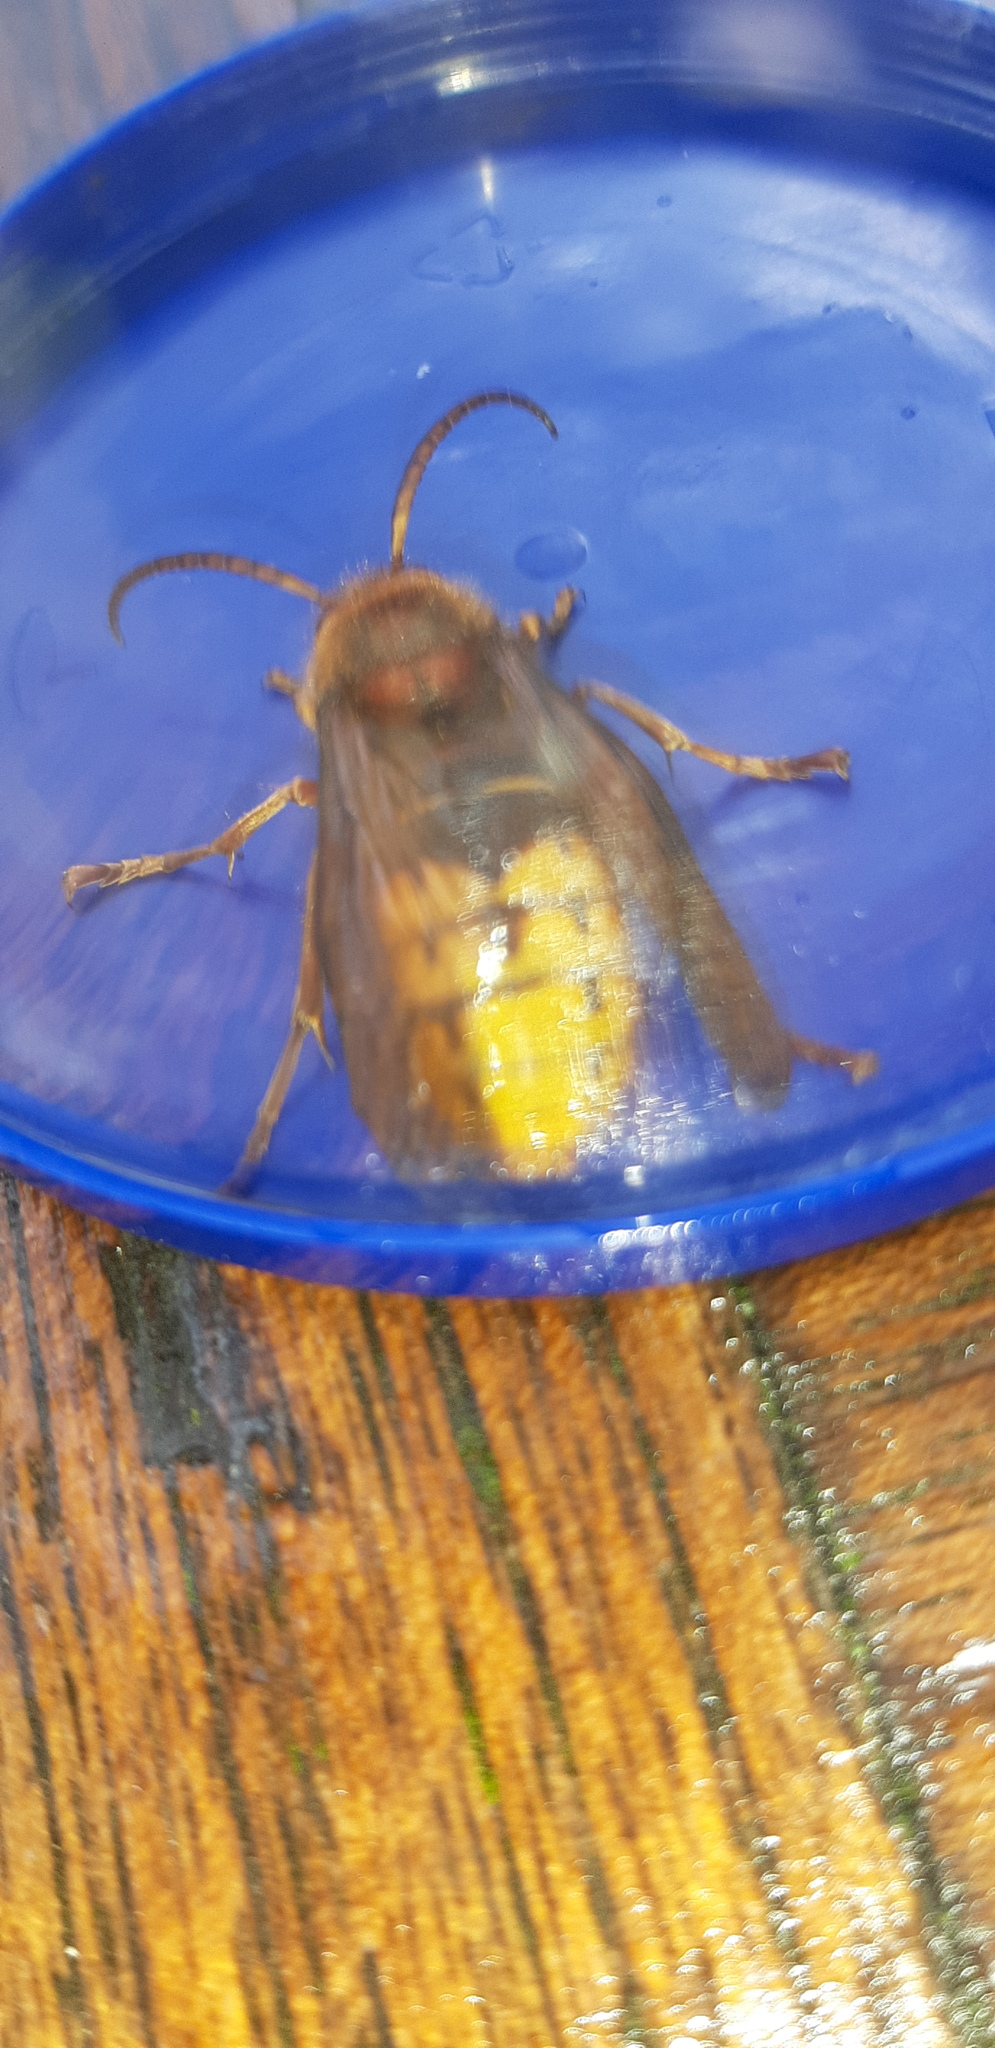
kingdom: Animalia
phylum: Arthropoda
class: Insecta
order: Hymenoptera
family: Vespidae
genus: Vespa
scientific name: Vespa crabro
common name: Hornet
